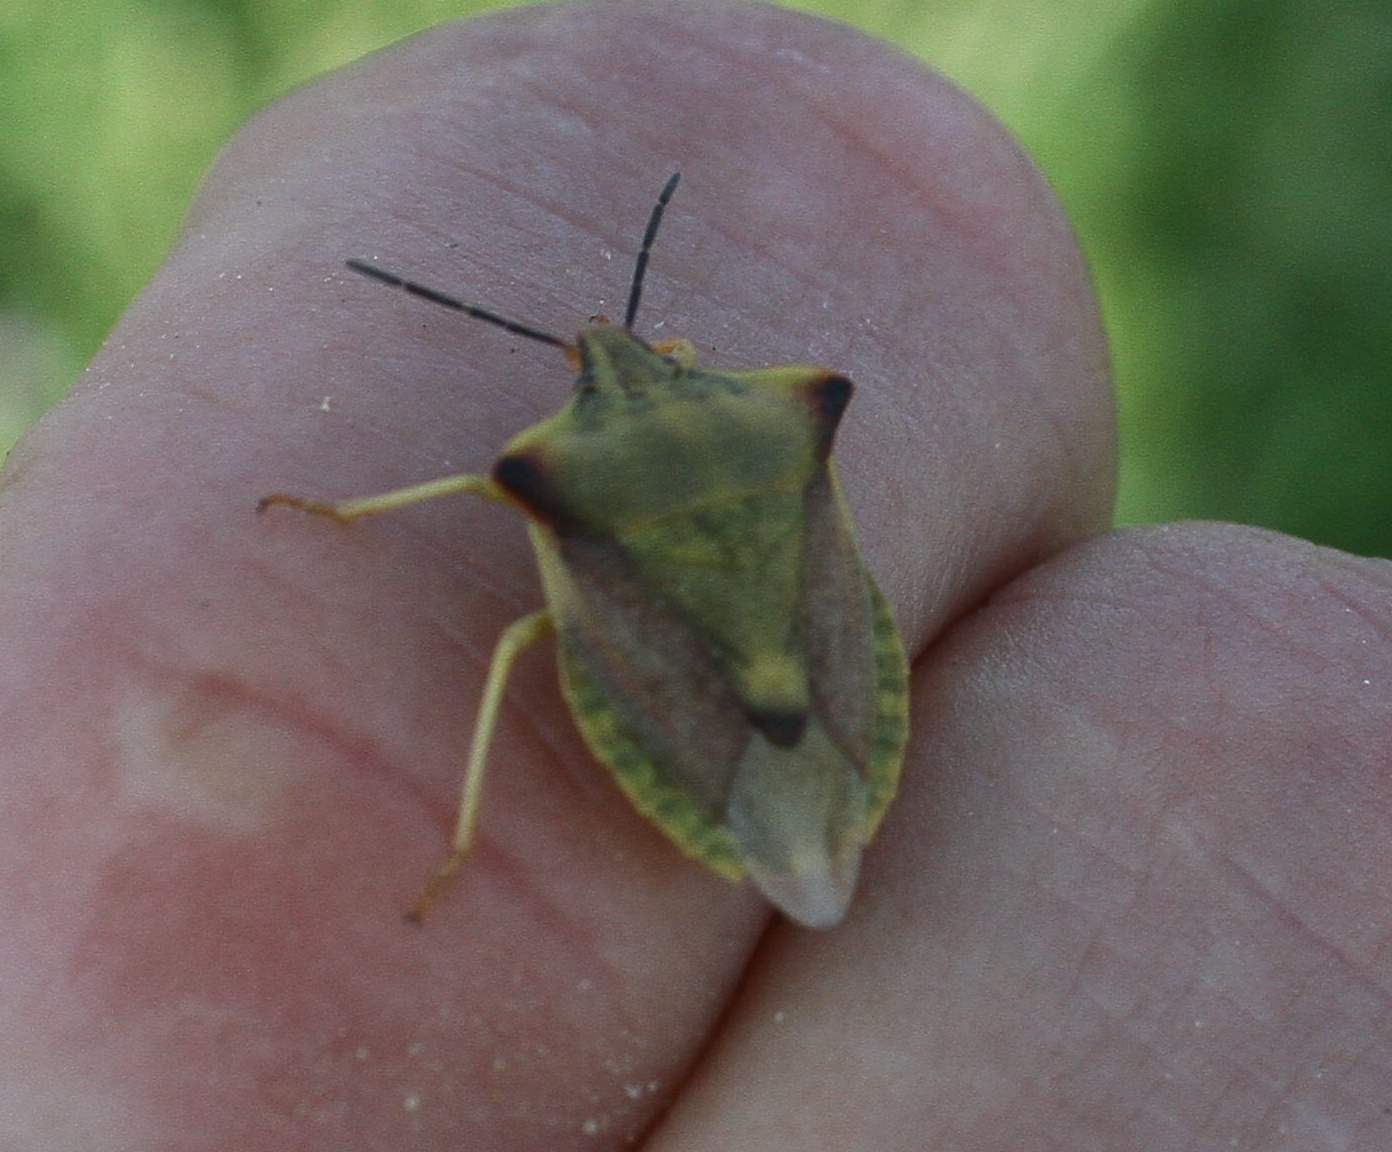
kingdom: Animalia
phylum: Arthropoda
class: Insecta
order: Hemiptera
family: Pentatomidae
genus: Carpocoris
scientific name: Carpocoris fuscispinus
